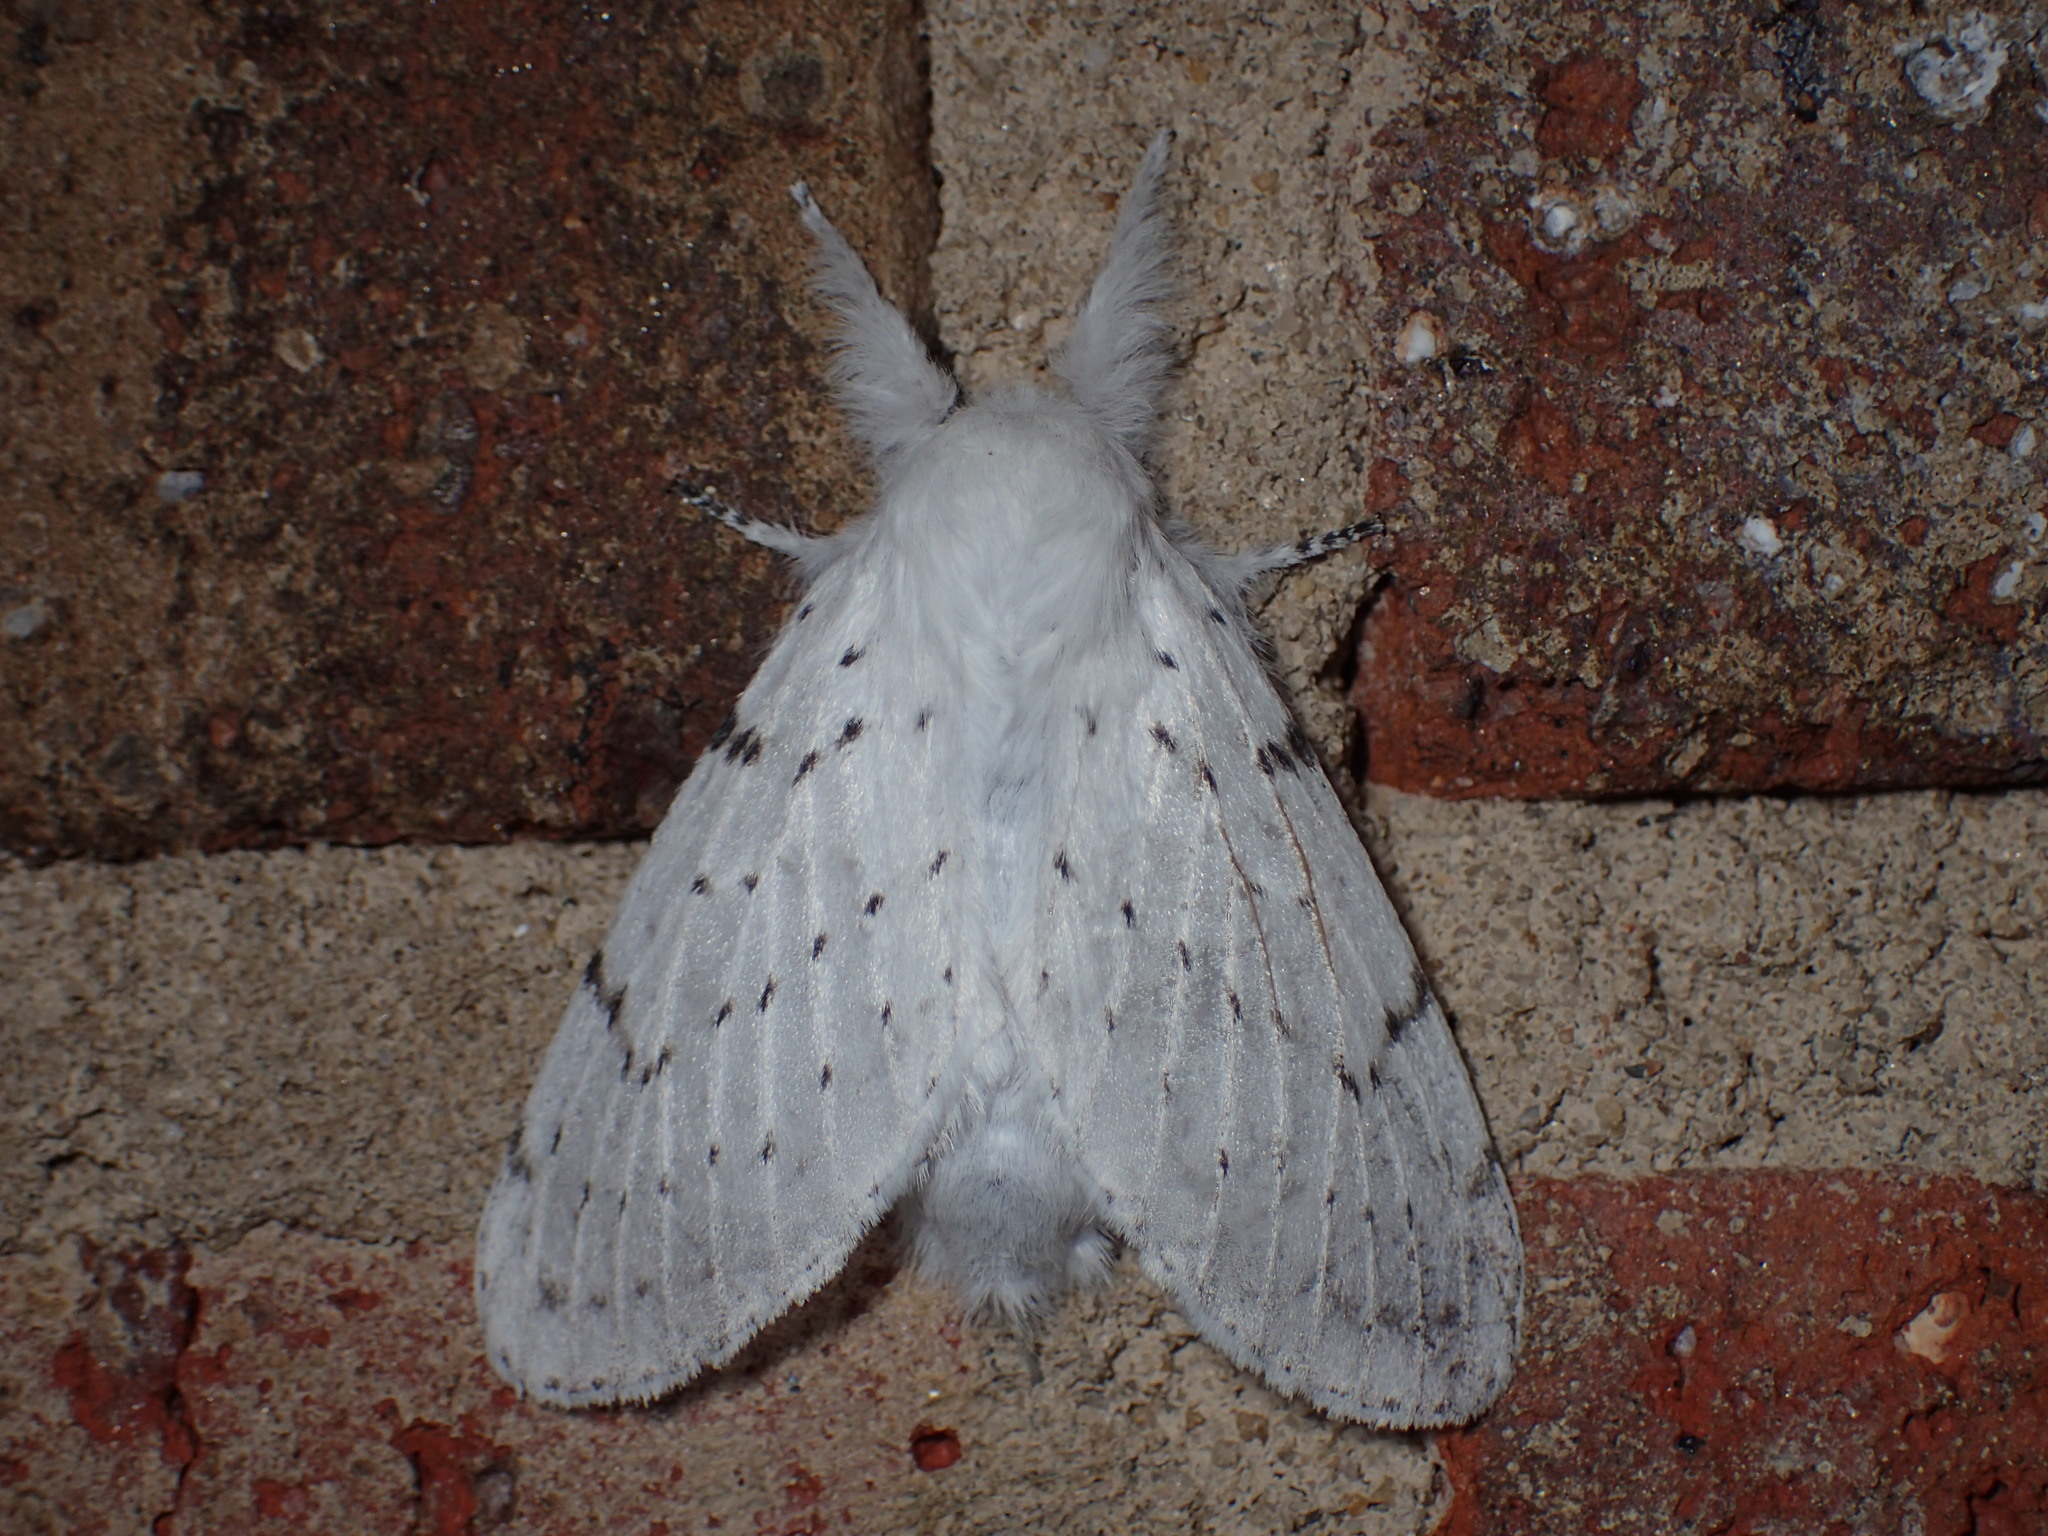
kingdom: Animalia
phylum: Arthropoda
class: Insecta
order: Lepidoptera
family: Lasiocampidae
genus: Artace
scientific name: Artace cribrarius
